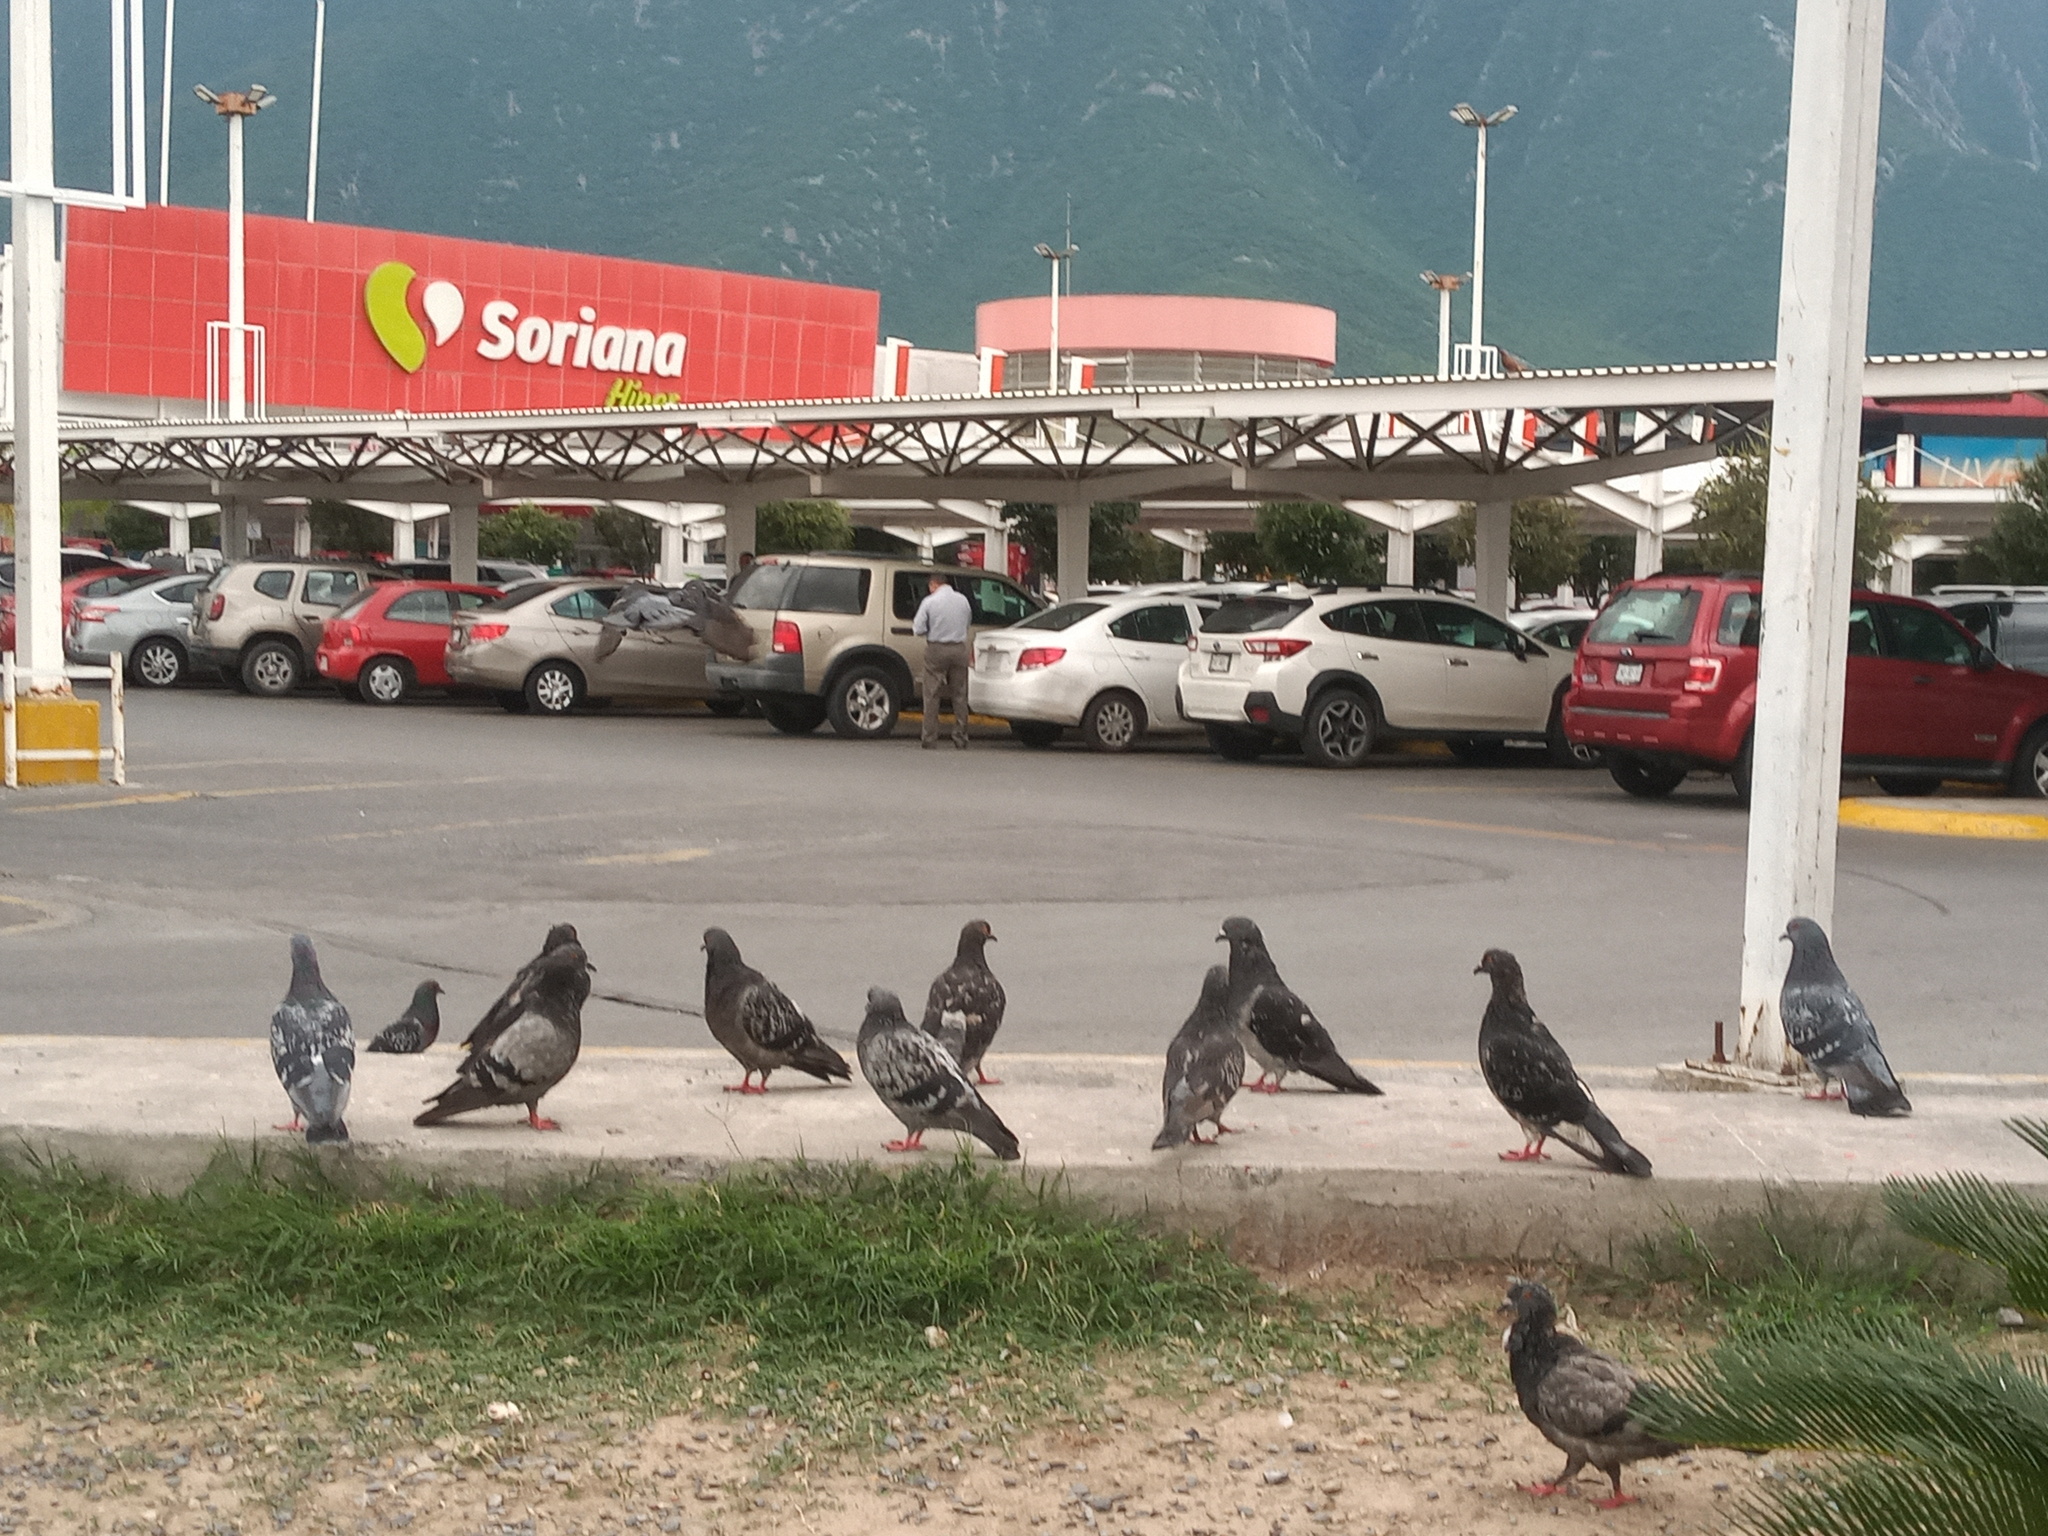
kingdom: Animalia
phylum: Chordata
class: Aves
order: Columbiformes
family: Columbidae
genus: Columba
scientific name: Columba livia
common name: Rock pigeon
